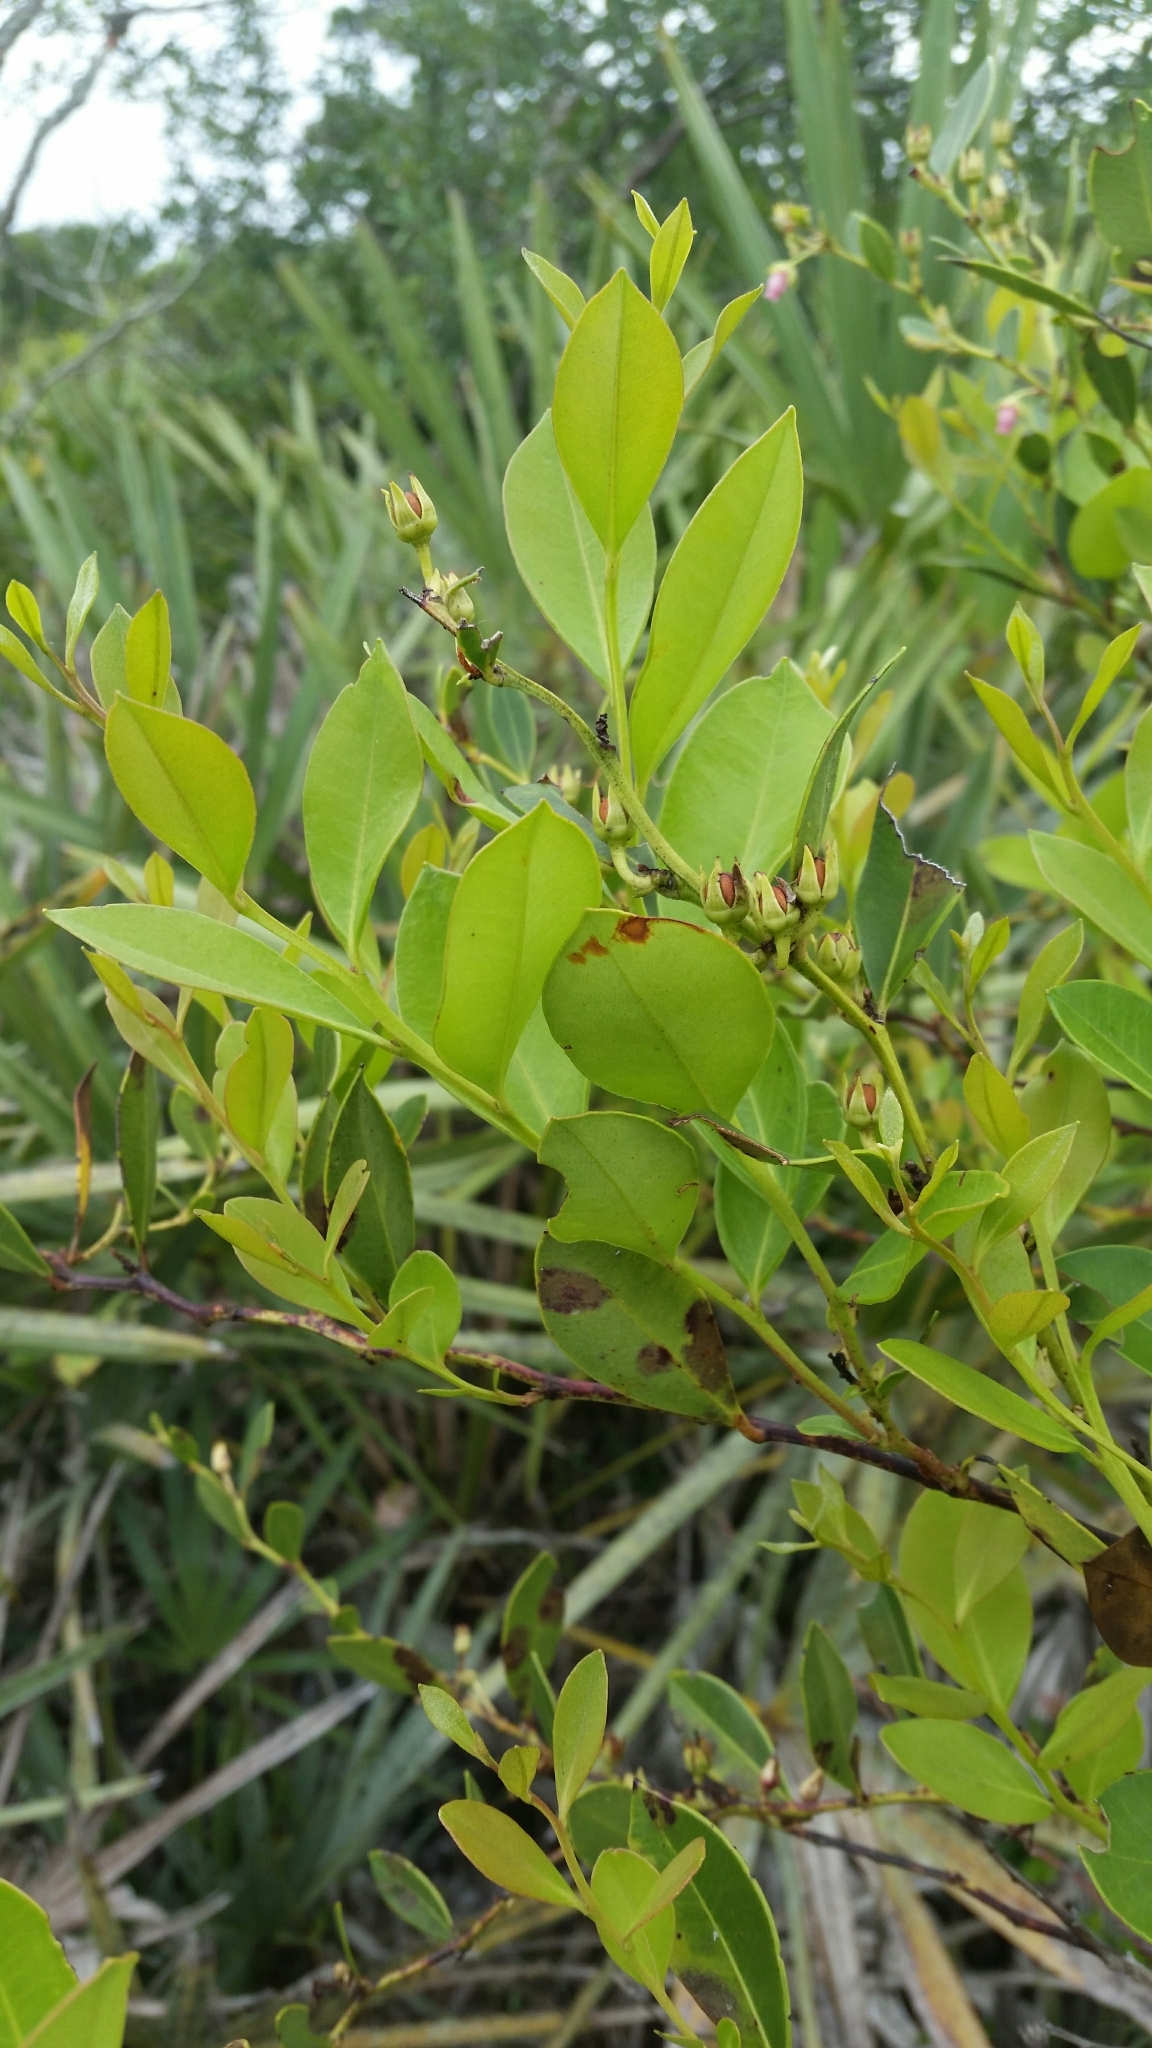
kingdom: Plantae
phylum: Tracheophyta
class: Magnoliopsida
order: Ericales
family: Ericaceae
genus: Lyonia
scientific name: Lyonia lucida
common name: Fetterbush
